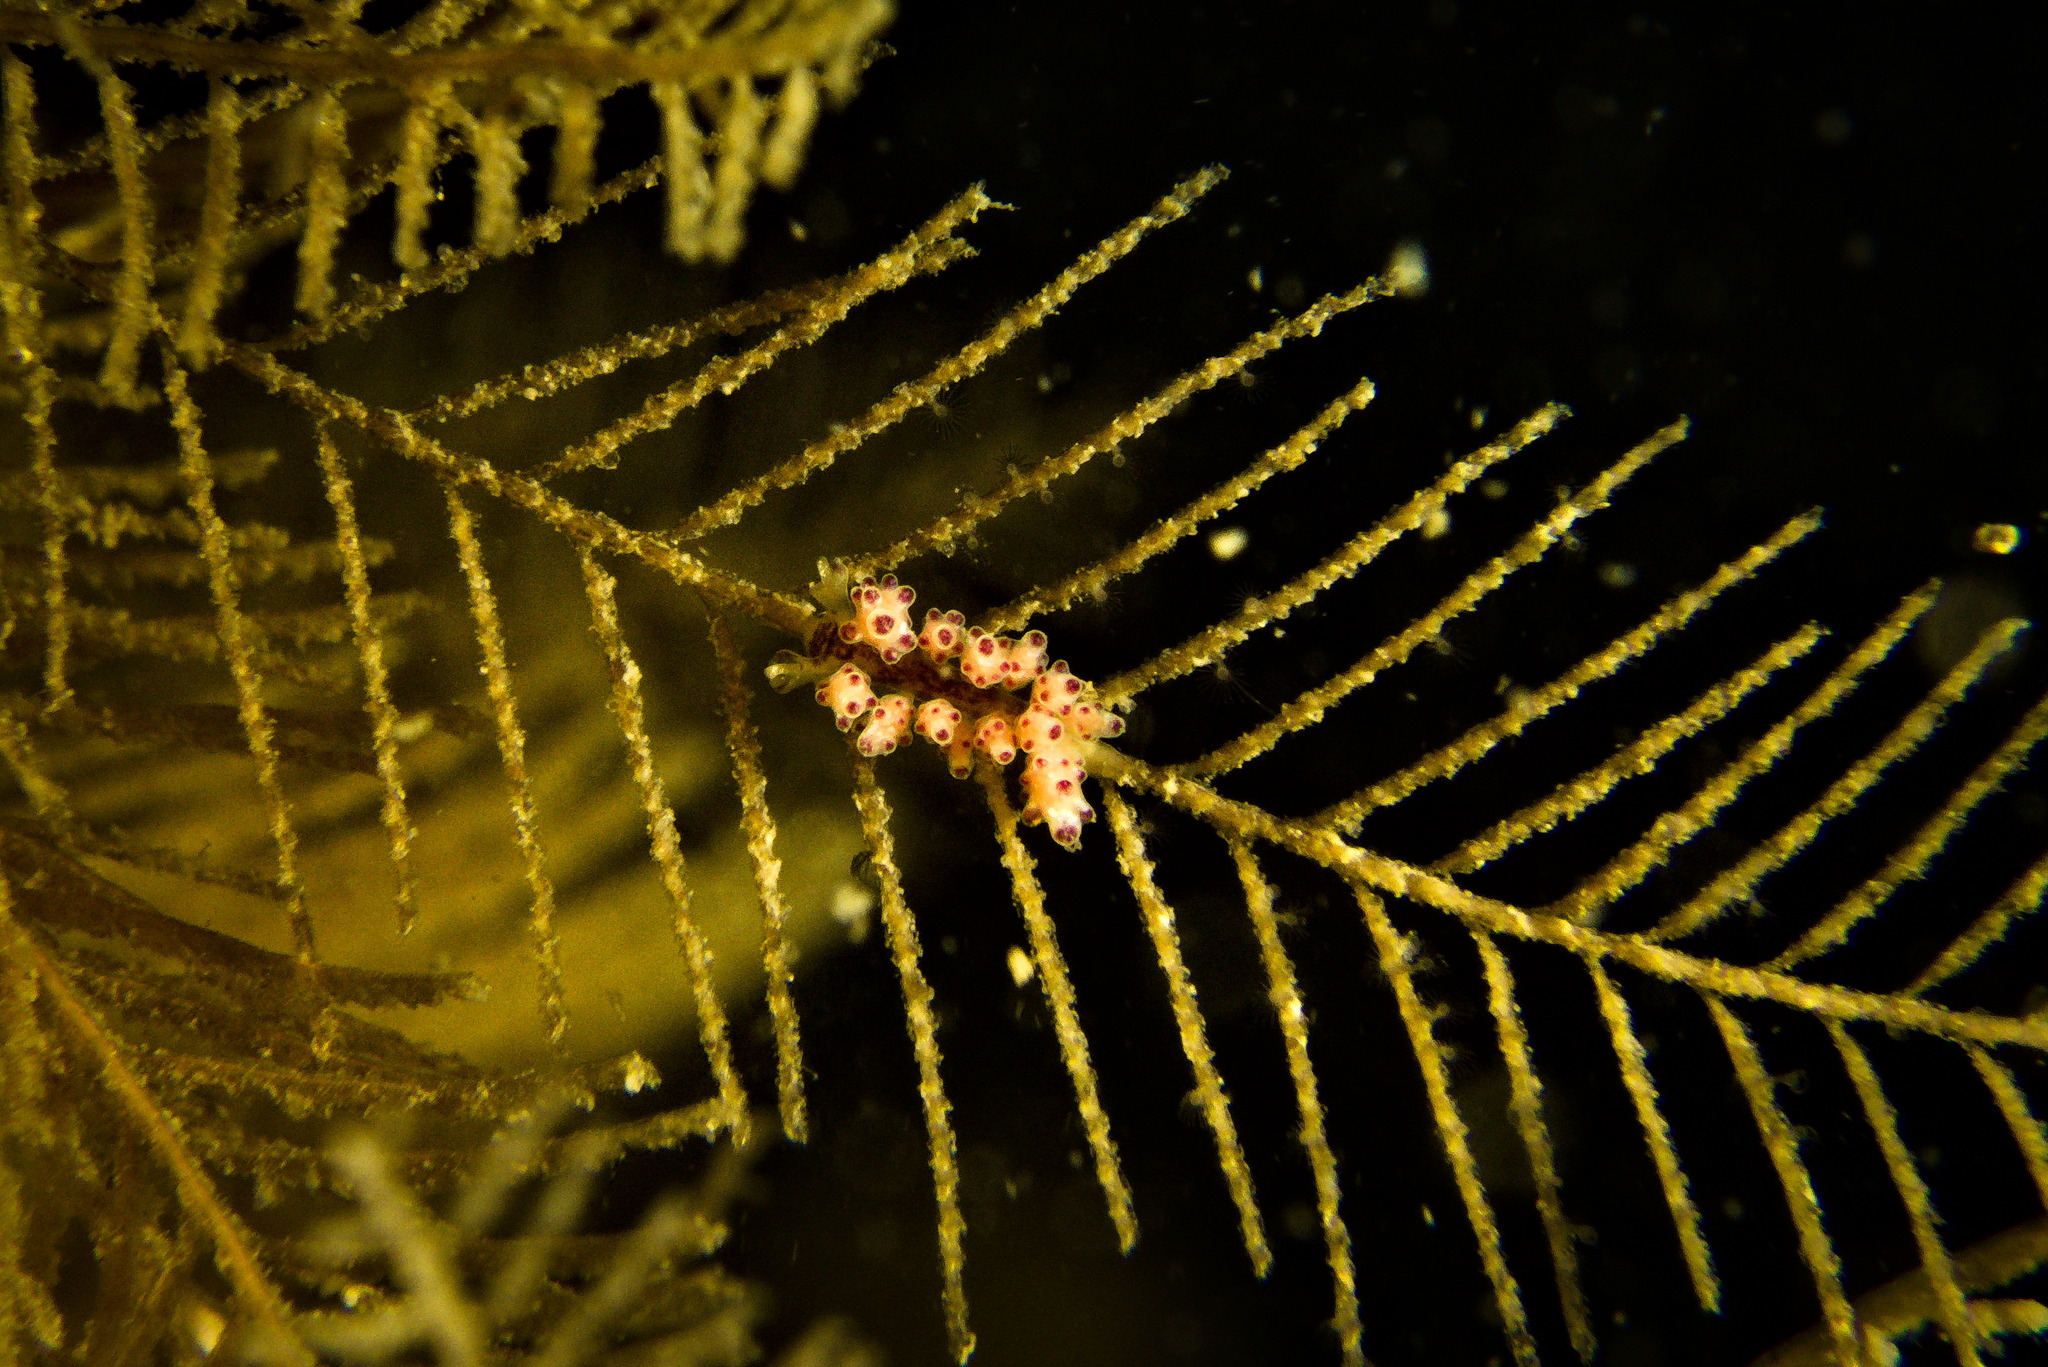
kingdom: Animalia
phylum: Mollusca
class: Gastropoda
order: Nudibranchia
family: Dotidae
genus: Doto
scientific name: Doto hydrallmaniae
